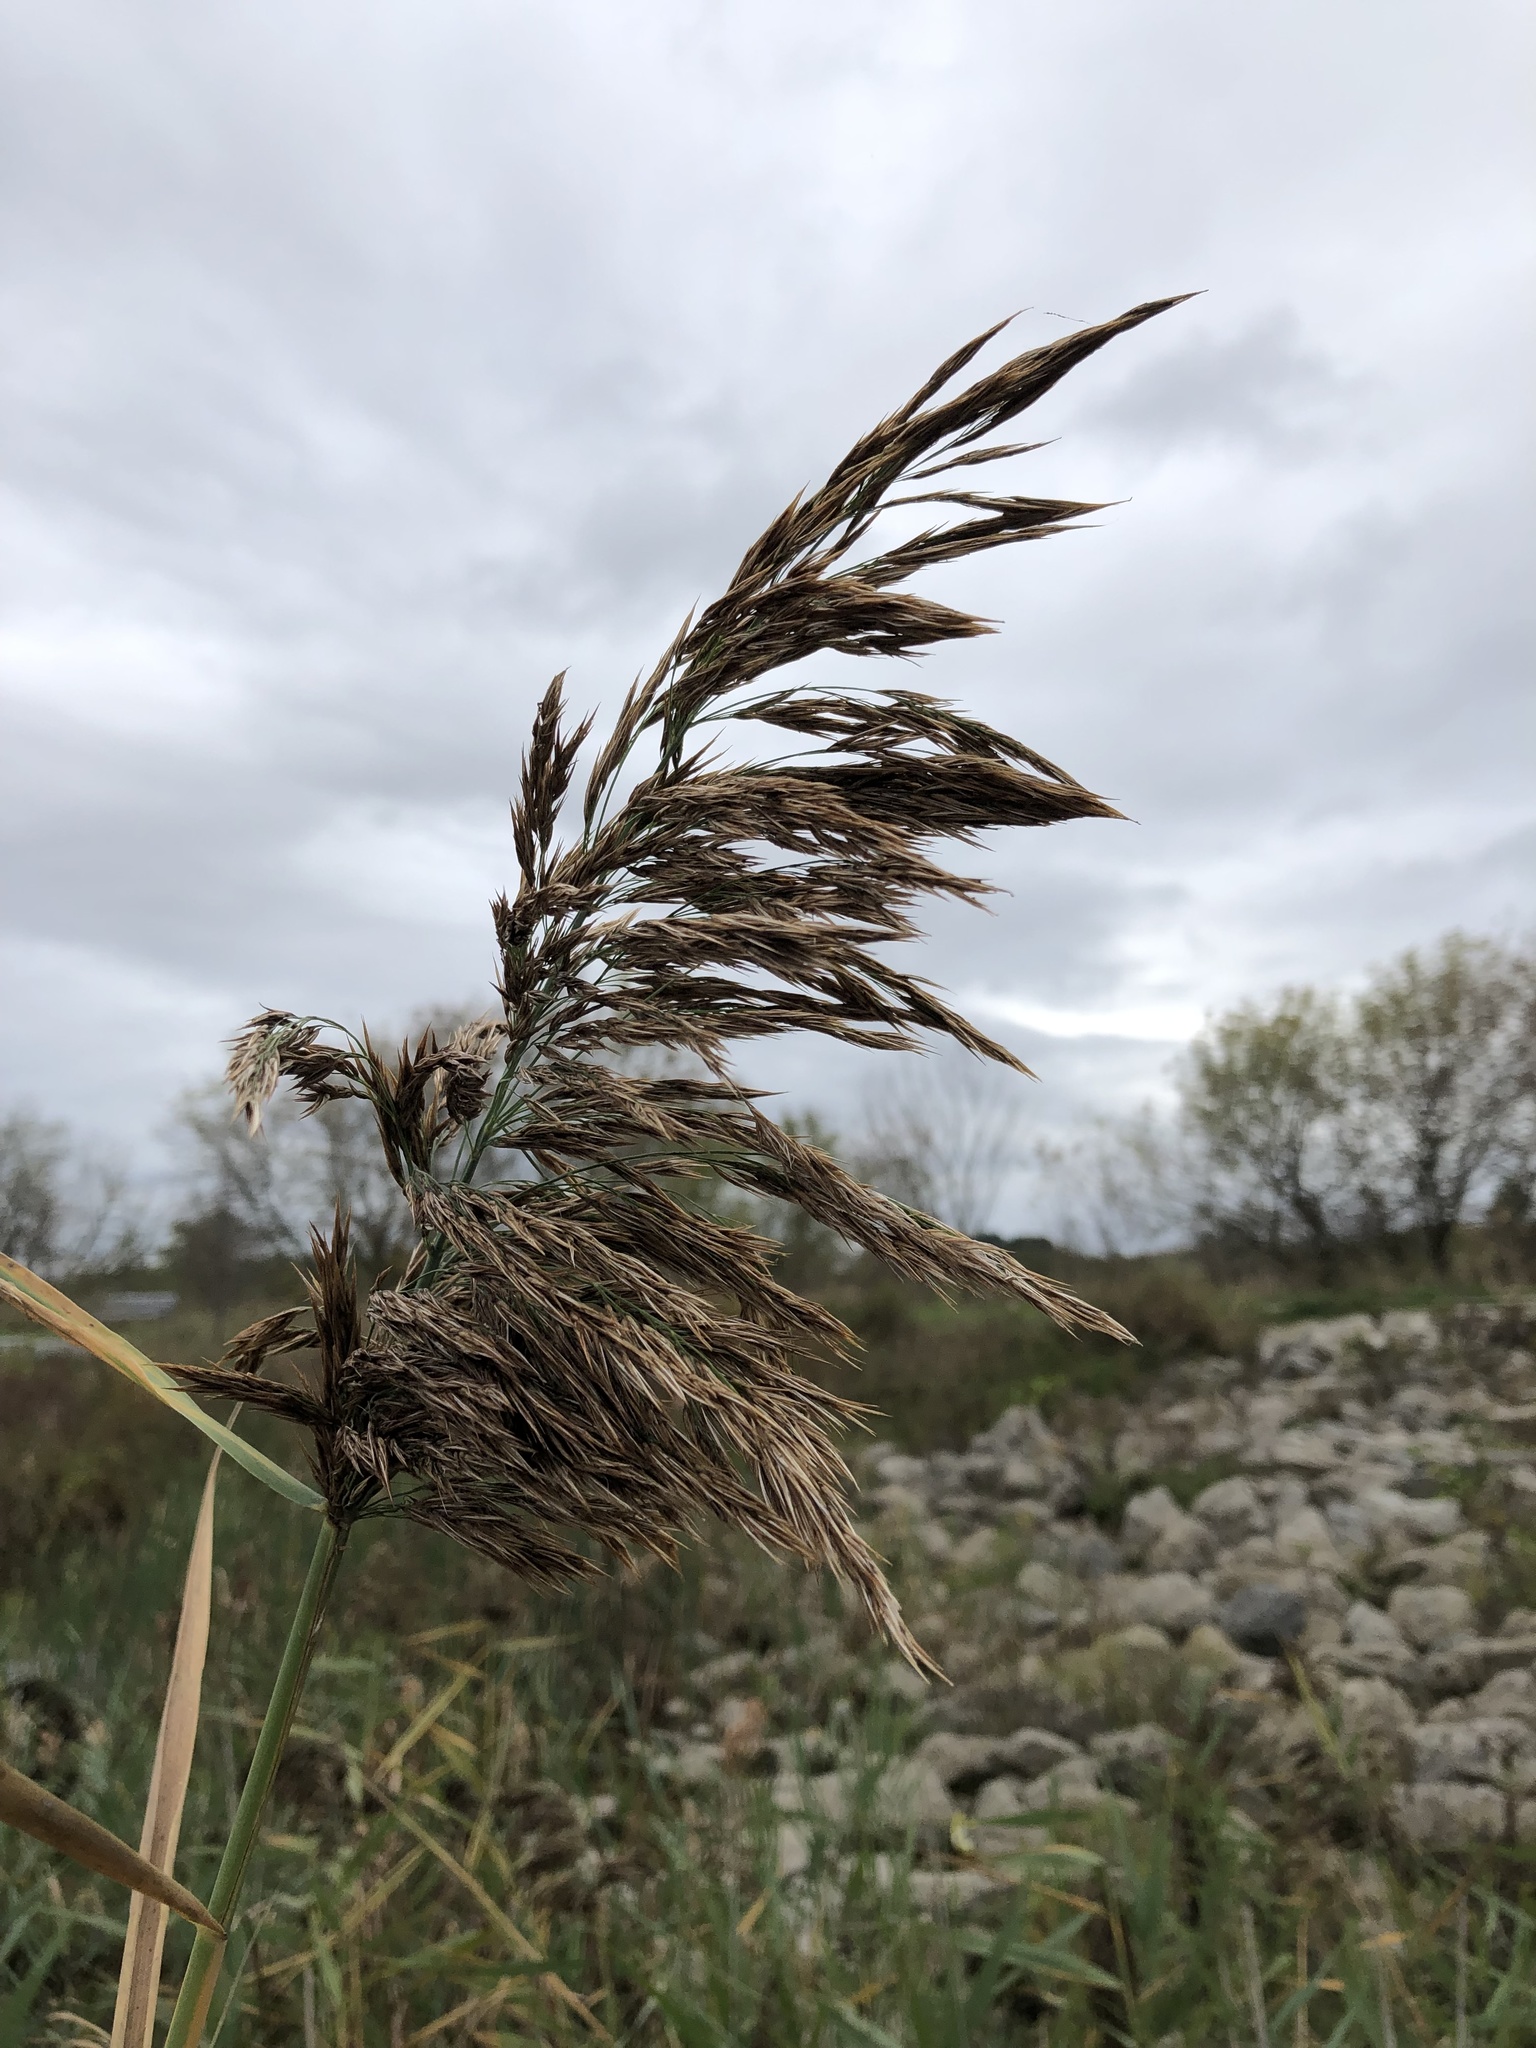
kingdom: Plantae
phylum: Tracheophyta
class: Liliopsida
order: Poales
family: Poaceae
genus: Phragmites
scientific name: Phragmites australis
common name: Common reed
